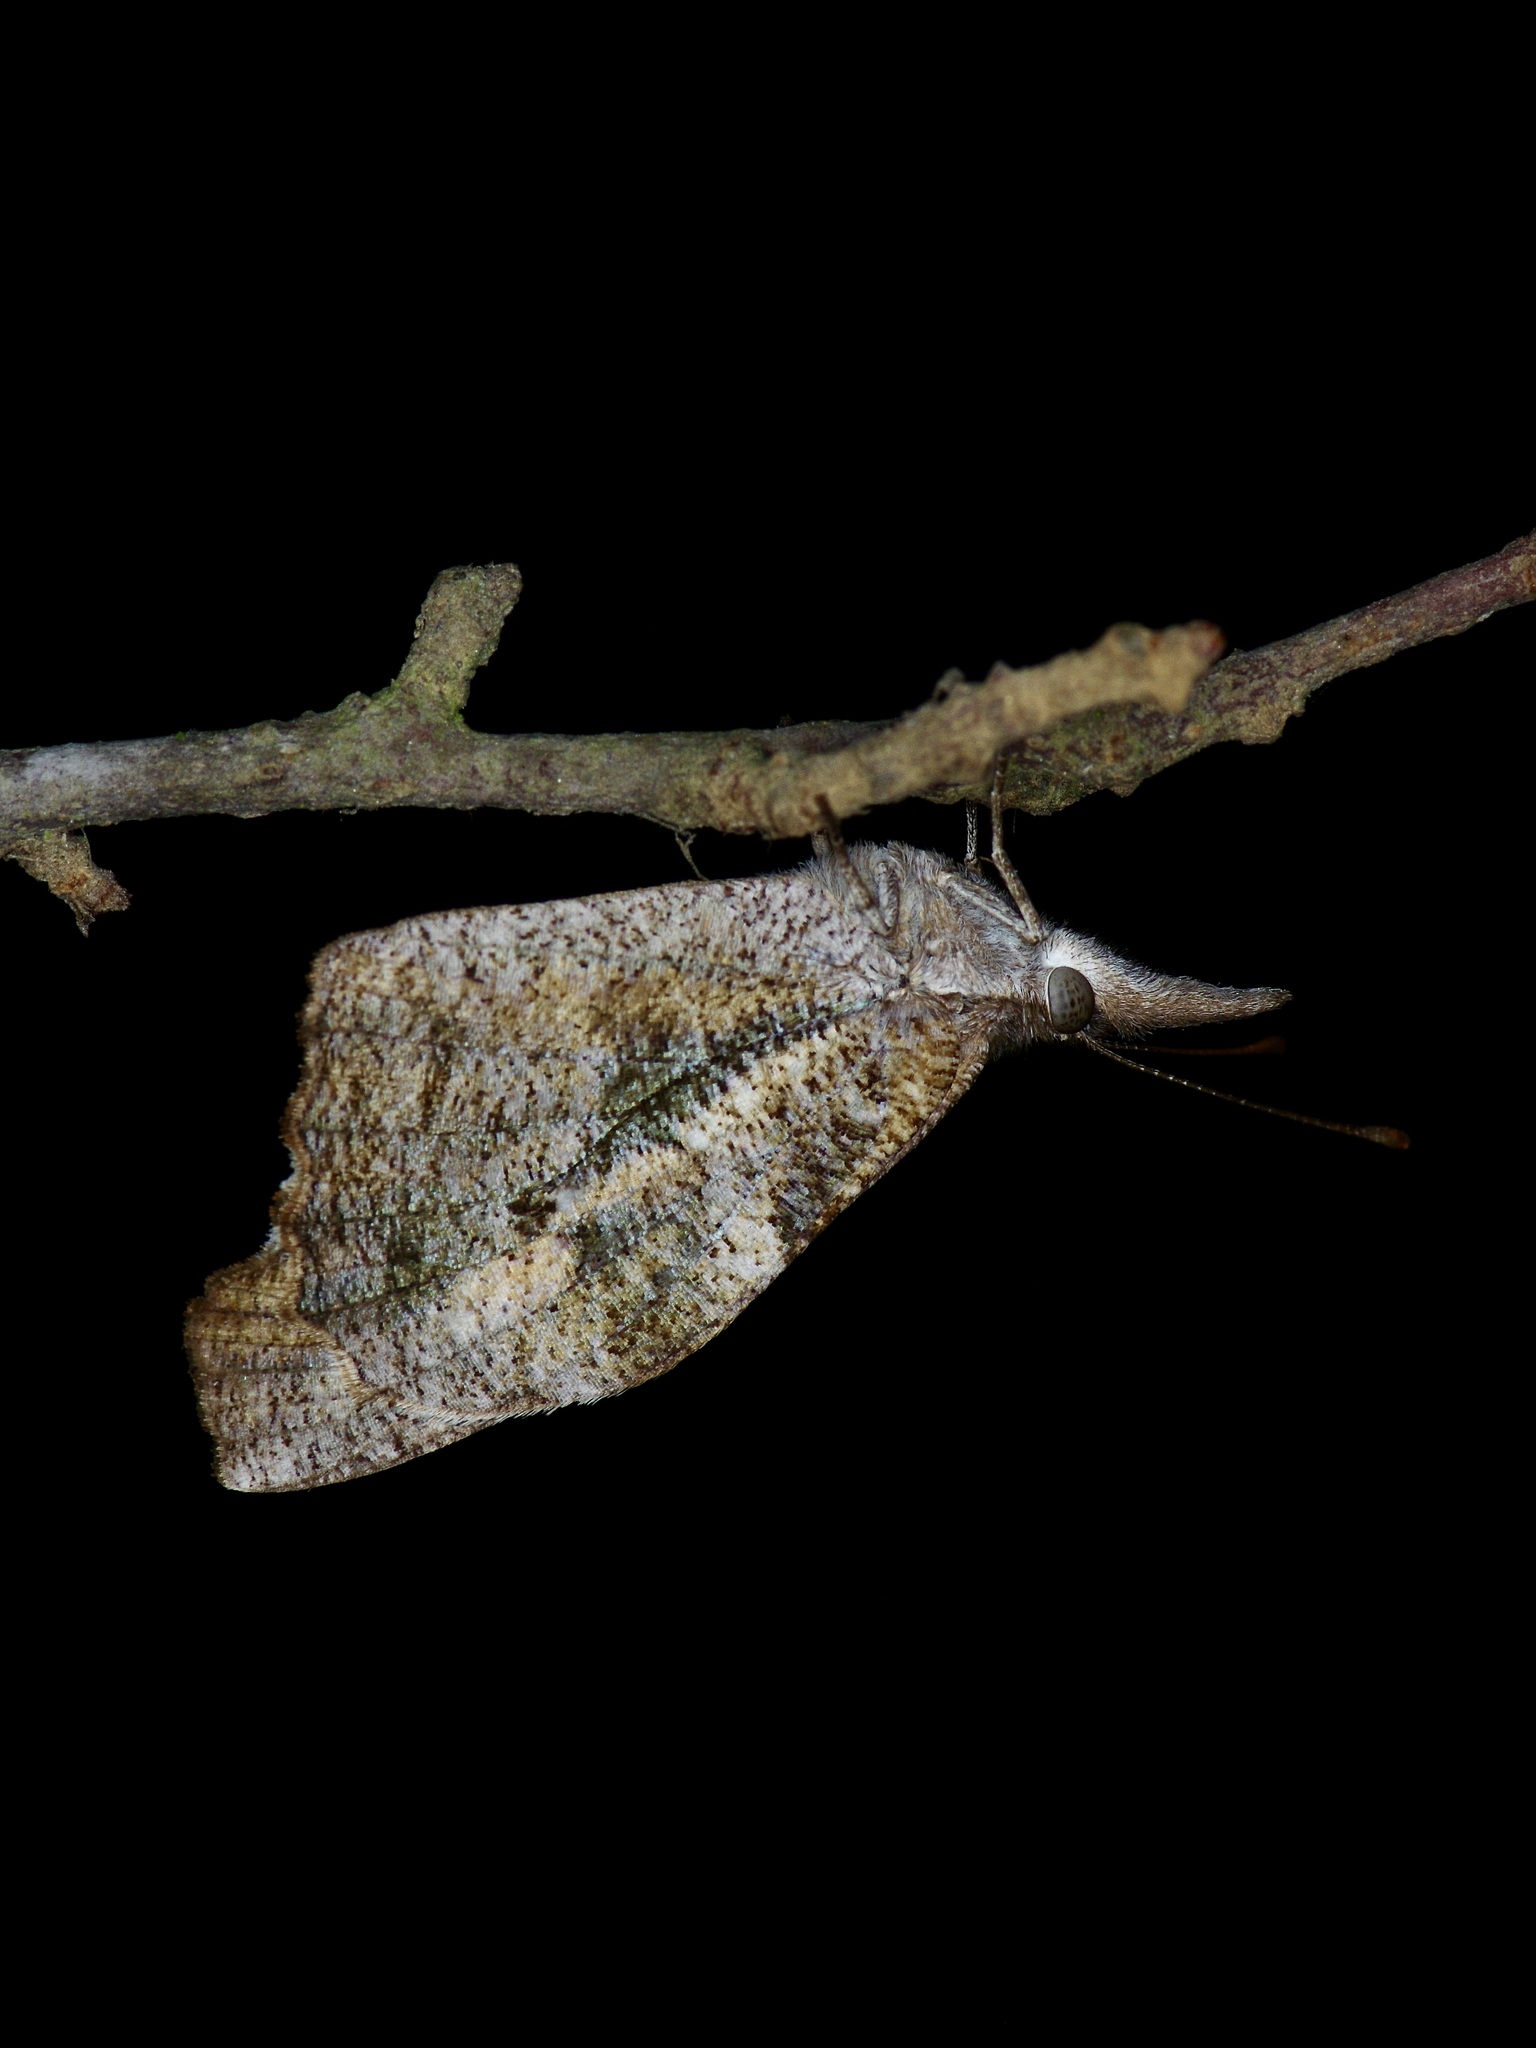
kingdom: Animalia
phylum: Arthropoda
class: Insecta
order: Lepidoptera
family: Nymphalidae
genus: Libytheana
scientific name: Libytheana carinenta
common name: American snout
